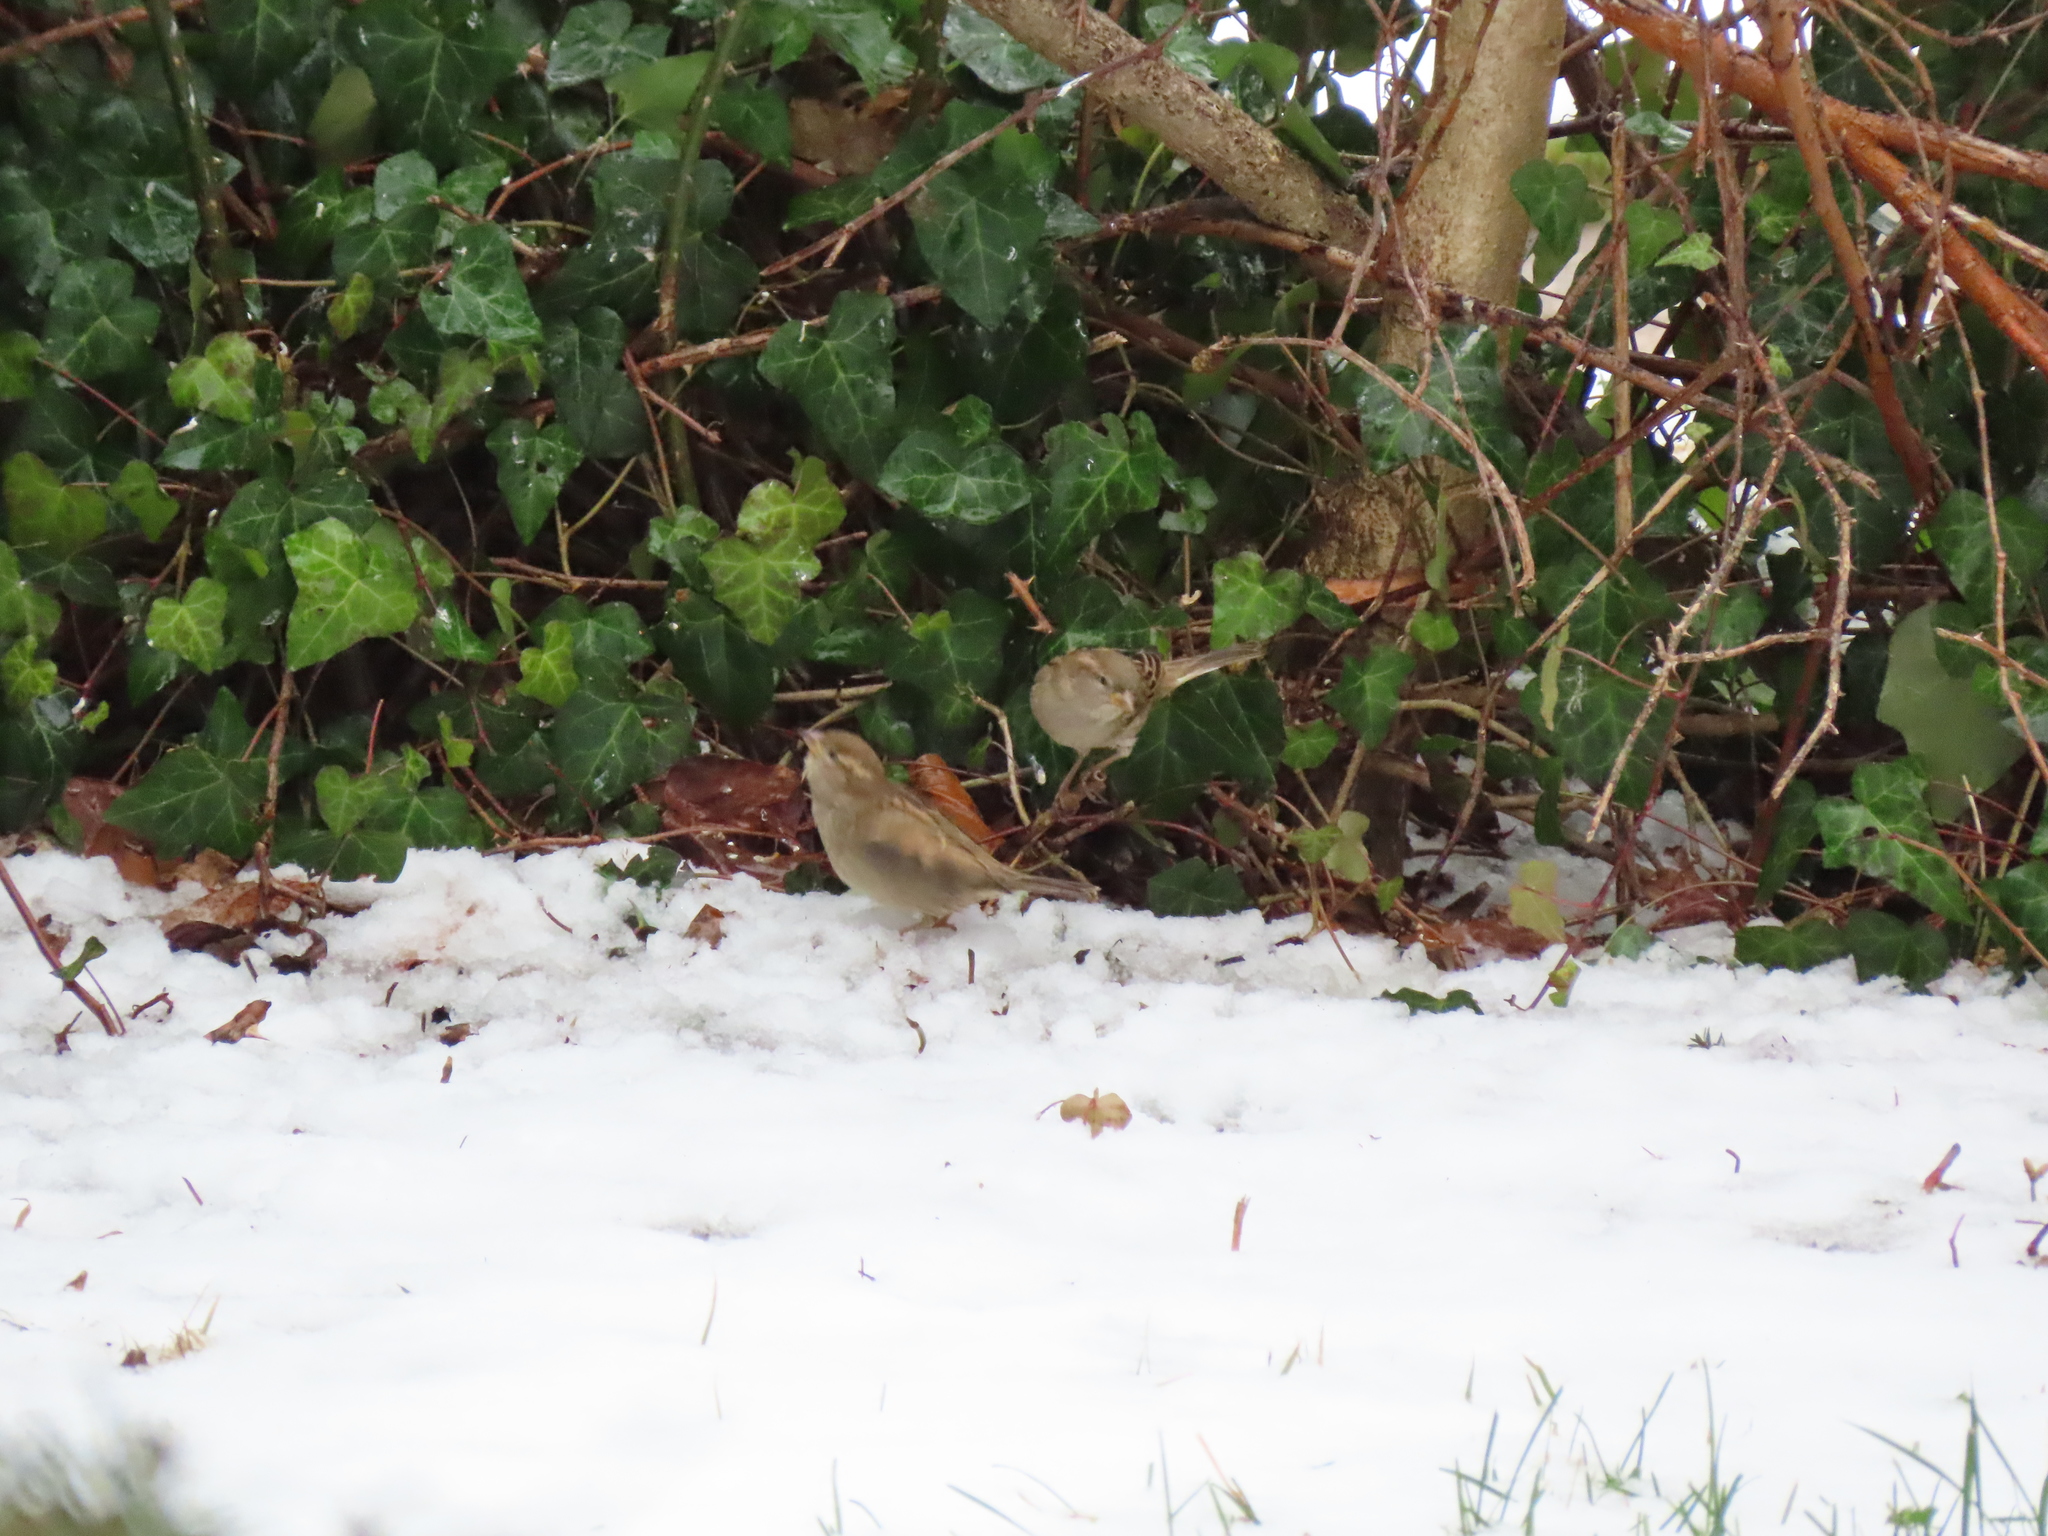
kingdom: Animalia
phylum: Chordata
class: Aves
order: Passeriformes
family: Passeridae
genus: Passer
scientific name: Passer domesticus
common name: House sparrow
